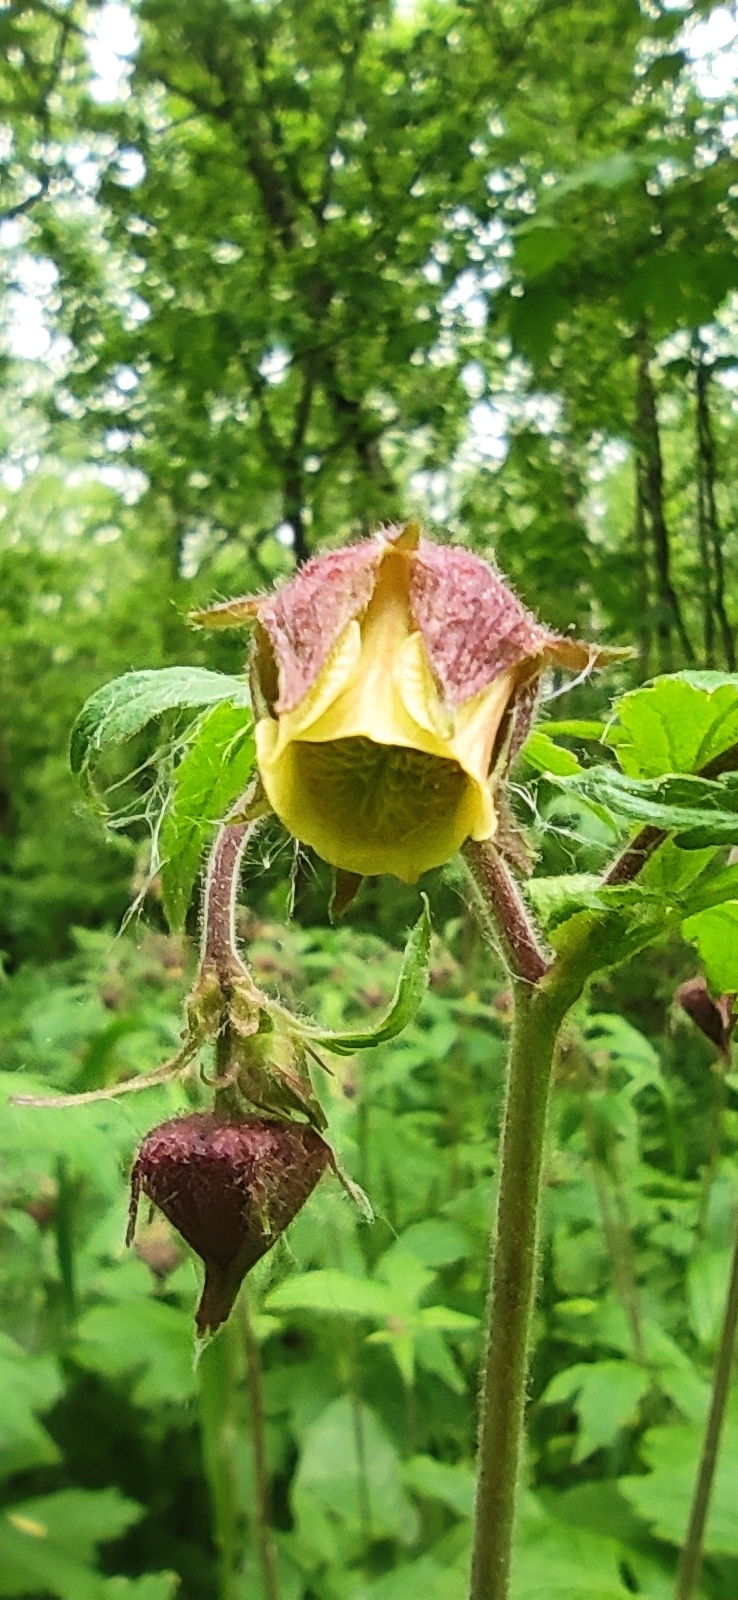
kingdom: Plantae
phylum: Tracheophyta
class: Magnoliopsida
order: Rosales
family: Rosaceae
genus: Geum
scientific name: Geum rivale
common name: Water avens
